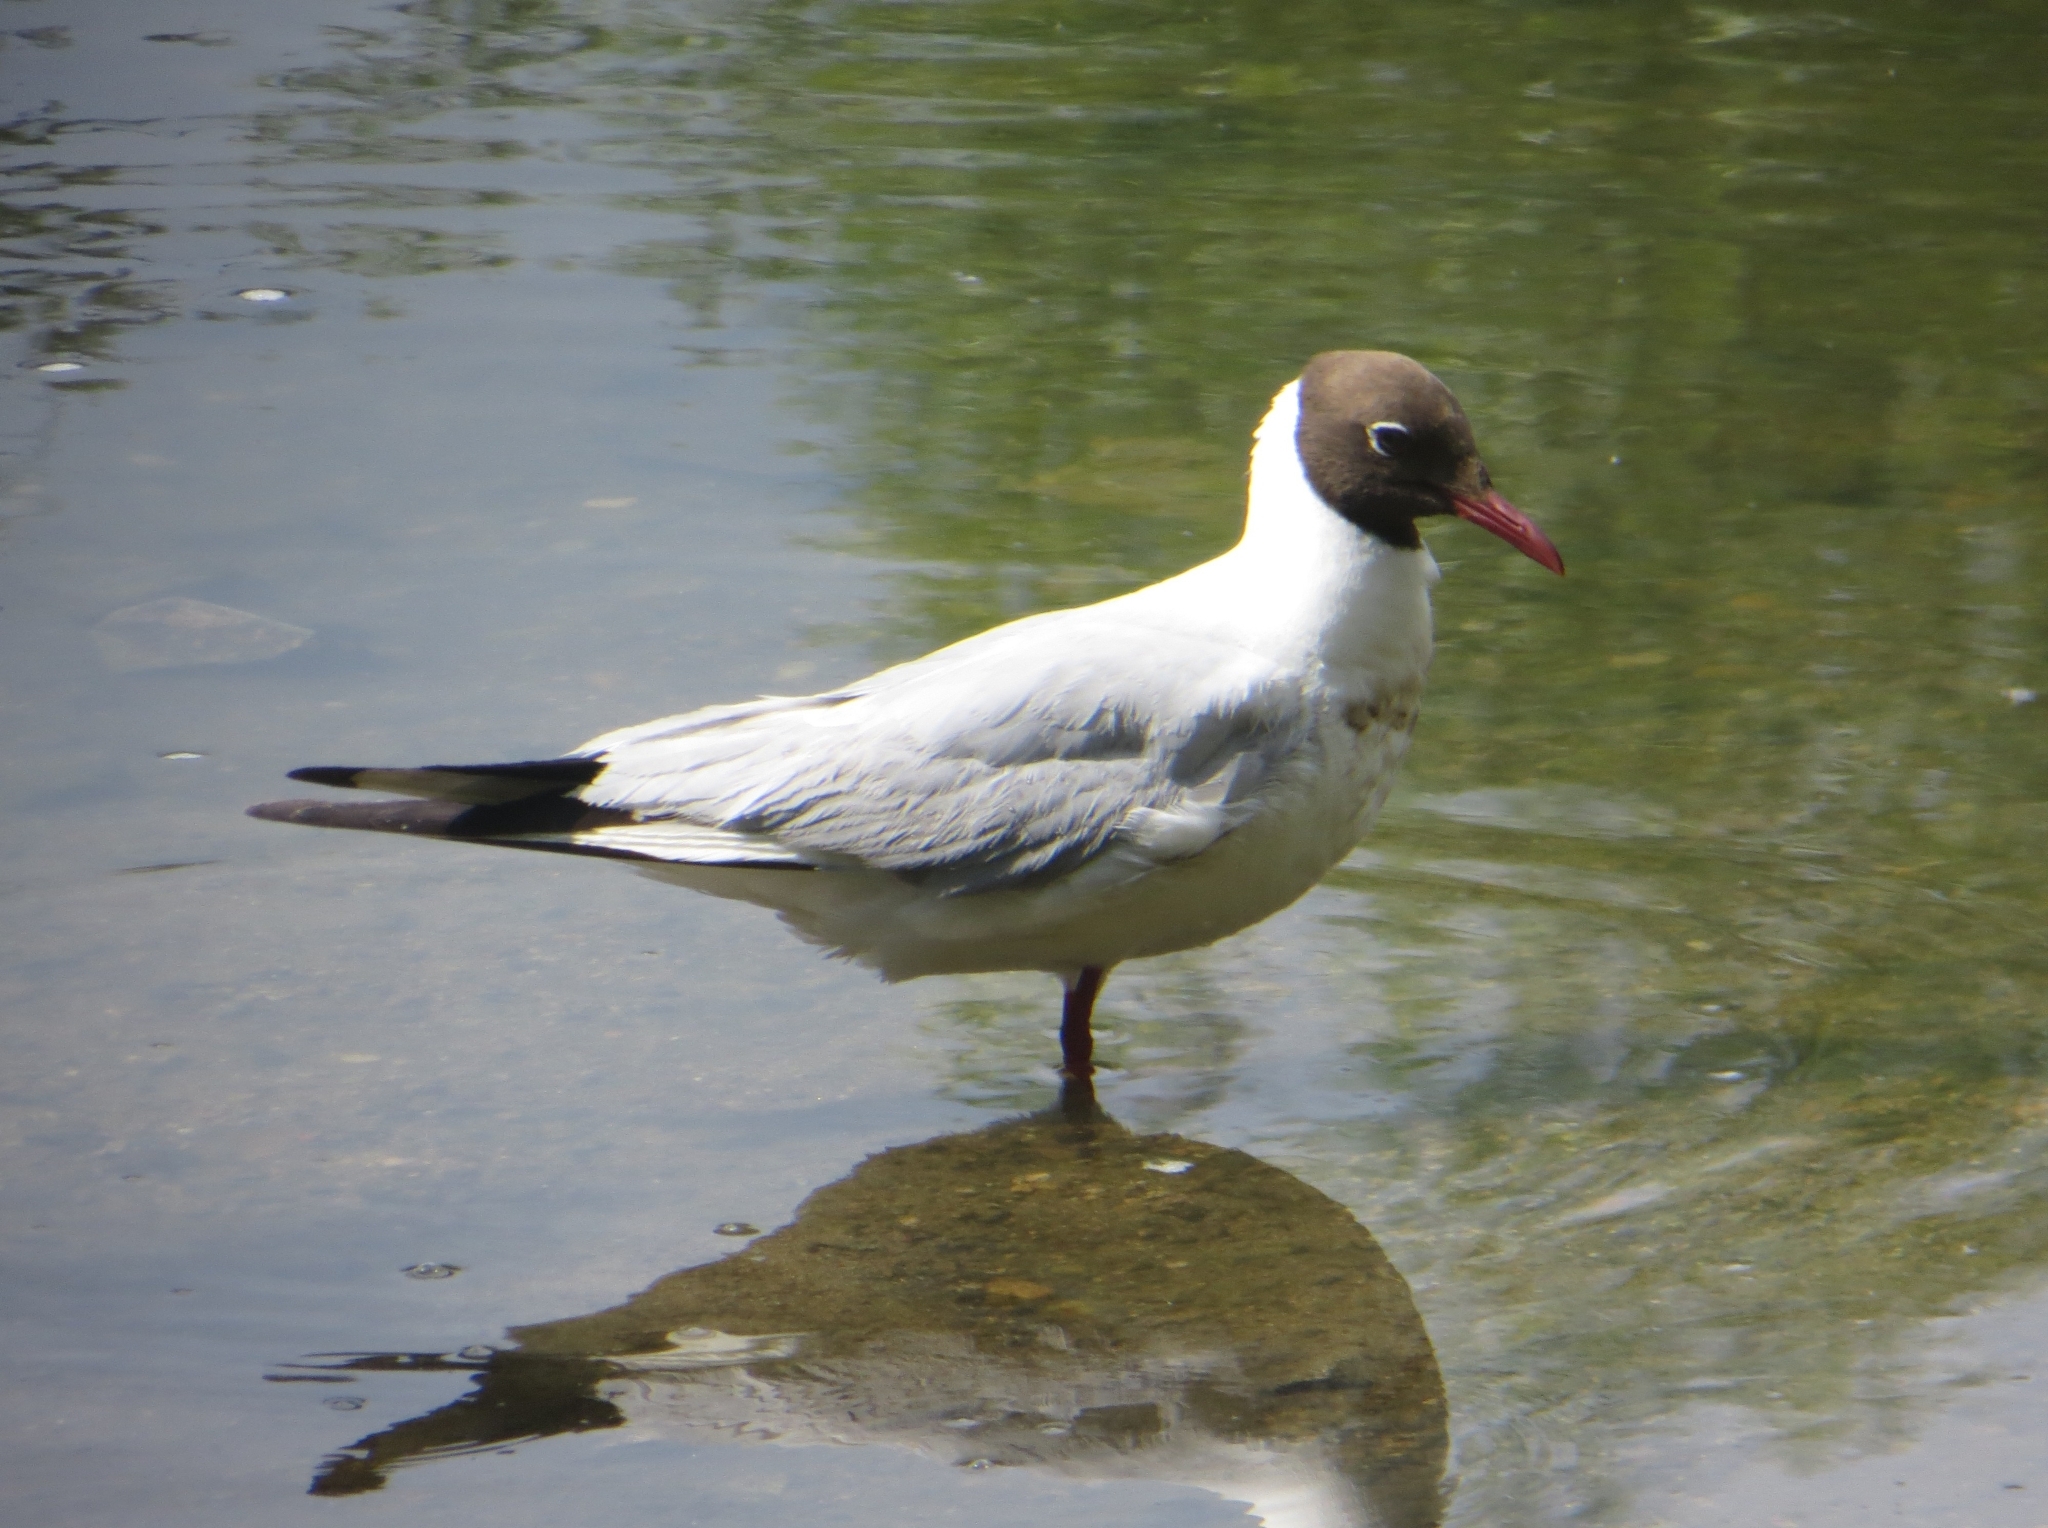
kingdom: Animalia
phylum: Chordata
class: Aves
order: Charadriiformes
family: Laridae
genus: Chroicocephalus
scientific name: Chroicocephalus ridibundus
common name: Black-headed gull
